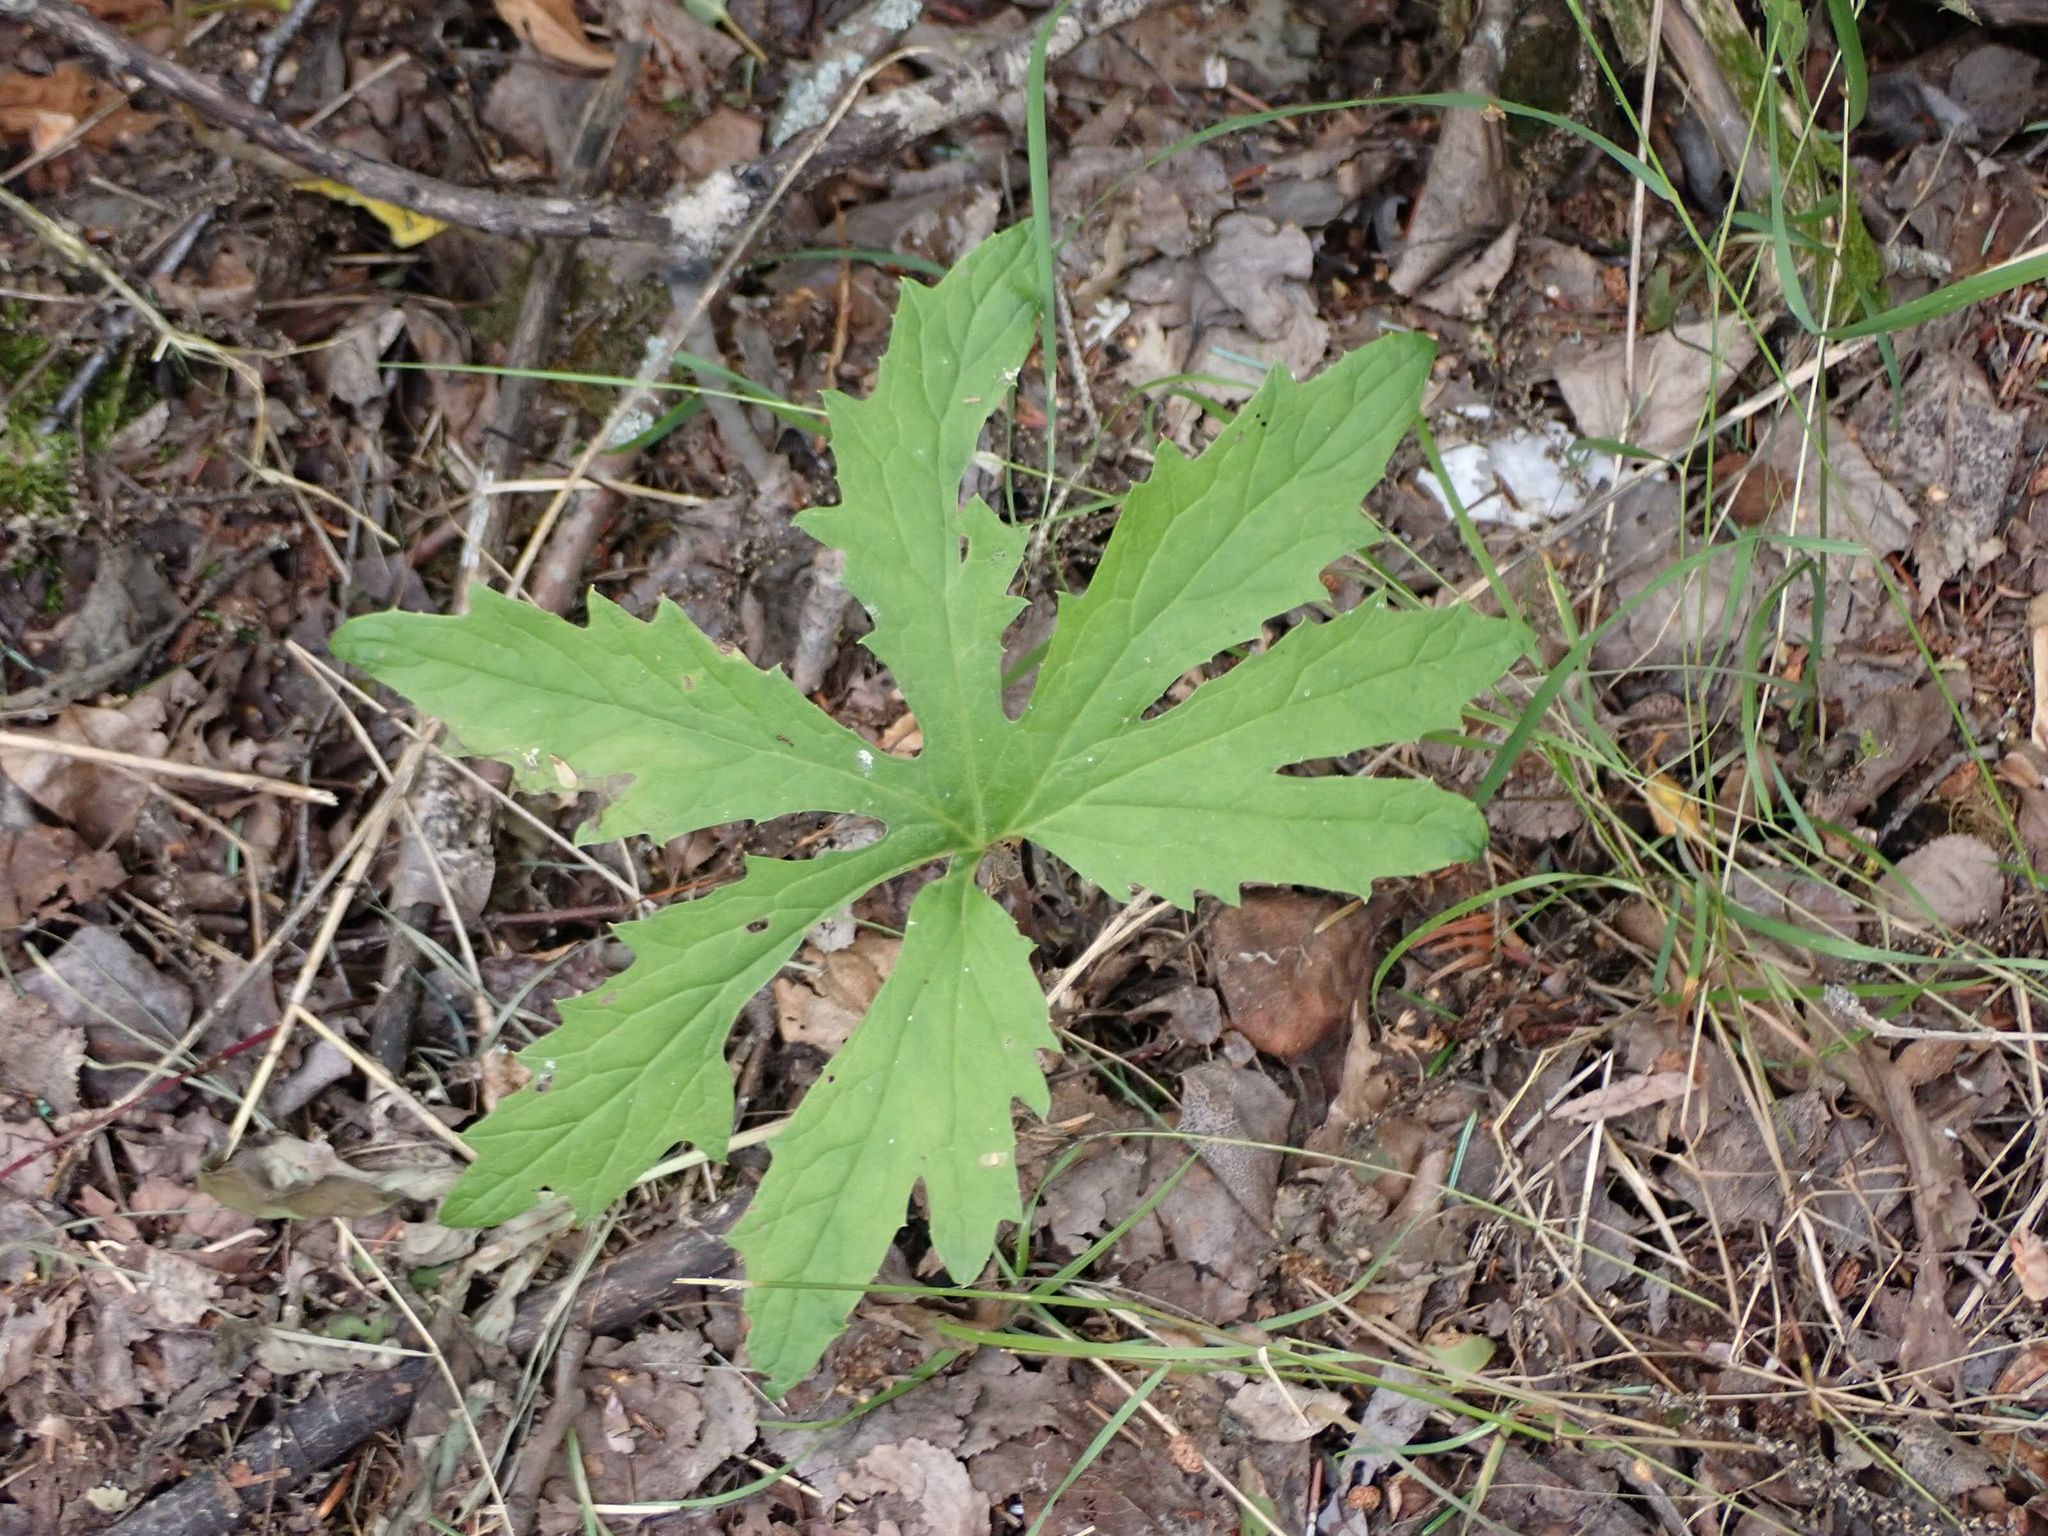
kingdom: Plantae
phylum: Tracheophyta
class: Magnoliopsida
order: Asterales
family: Asteraceae
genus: Petasites
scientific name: Petasites frigidus
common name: Arctic butterbur
